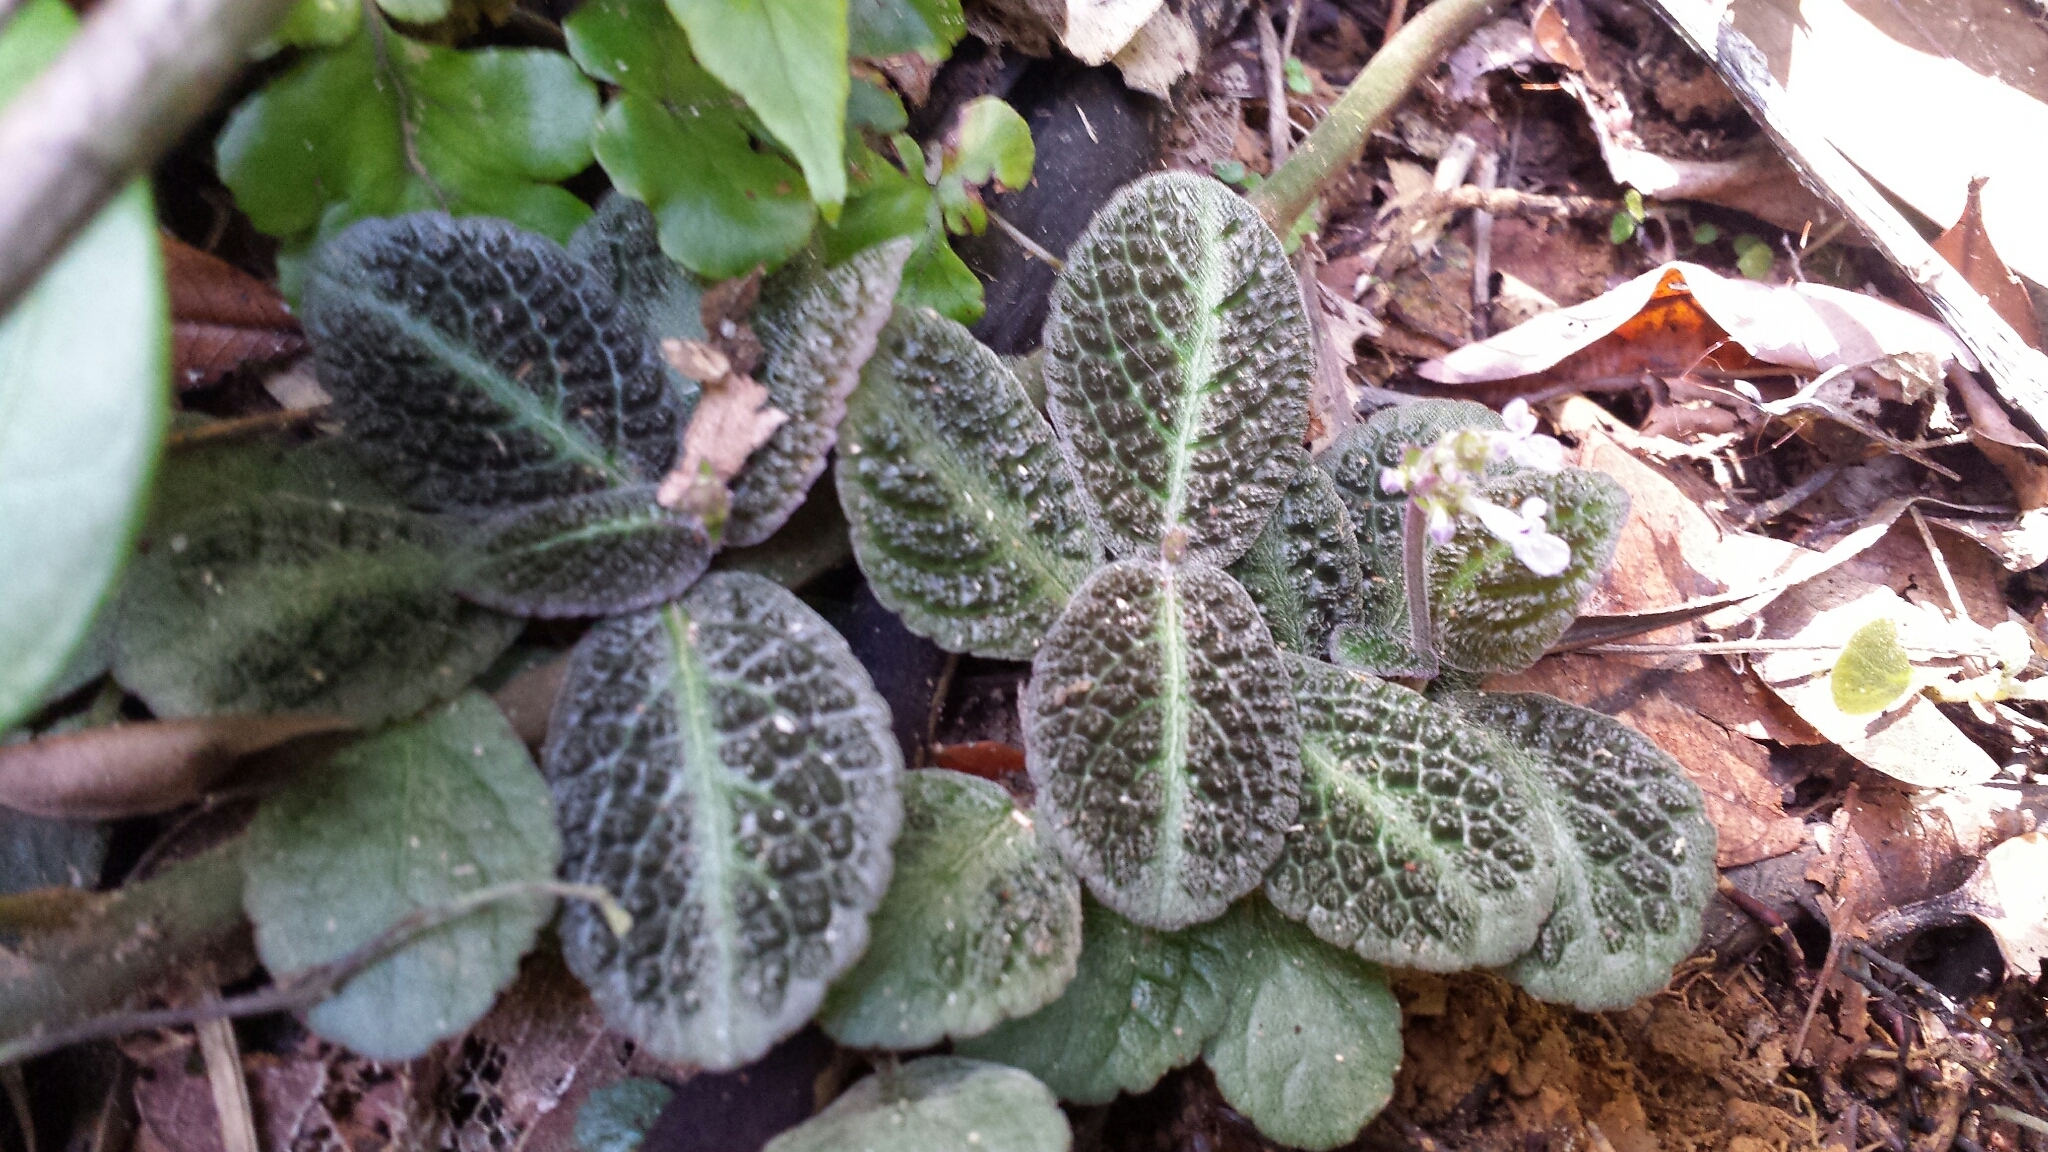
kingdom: Plantae
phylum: Tracheophyta
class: Magnoliopsida
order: Lamiales
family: Lamiaceae
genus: Plectranthus
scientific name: Plectranthus humbertii
